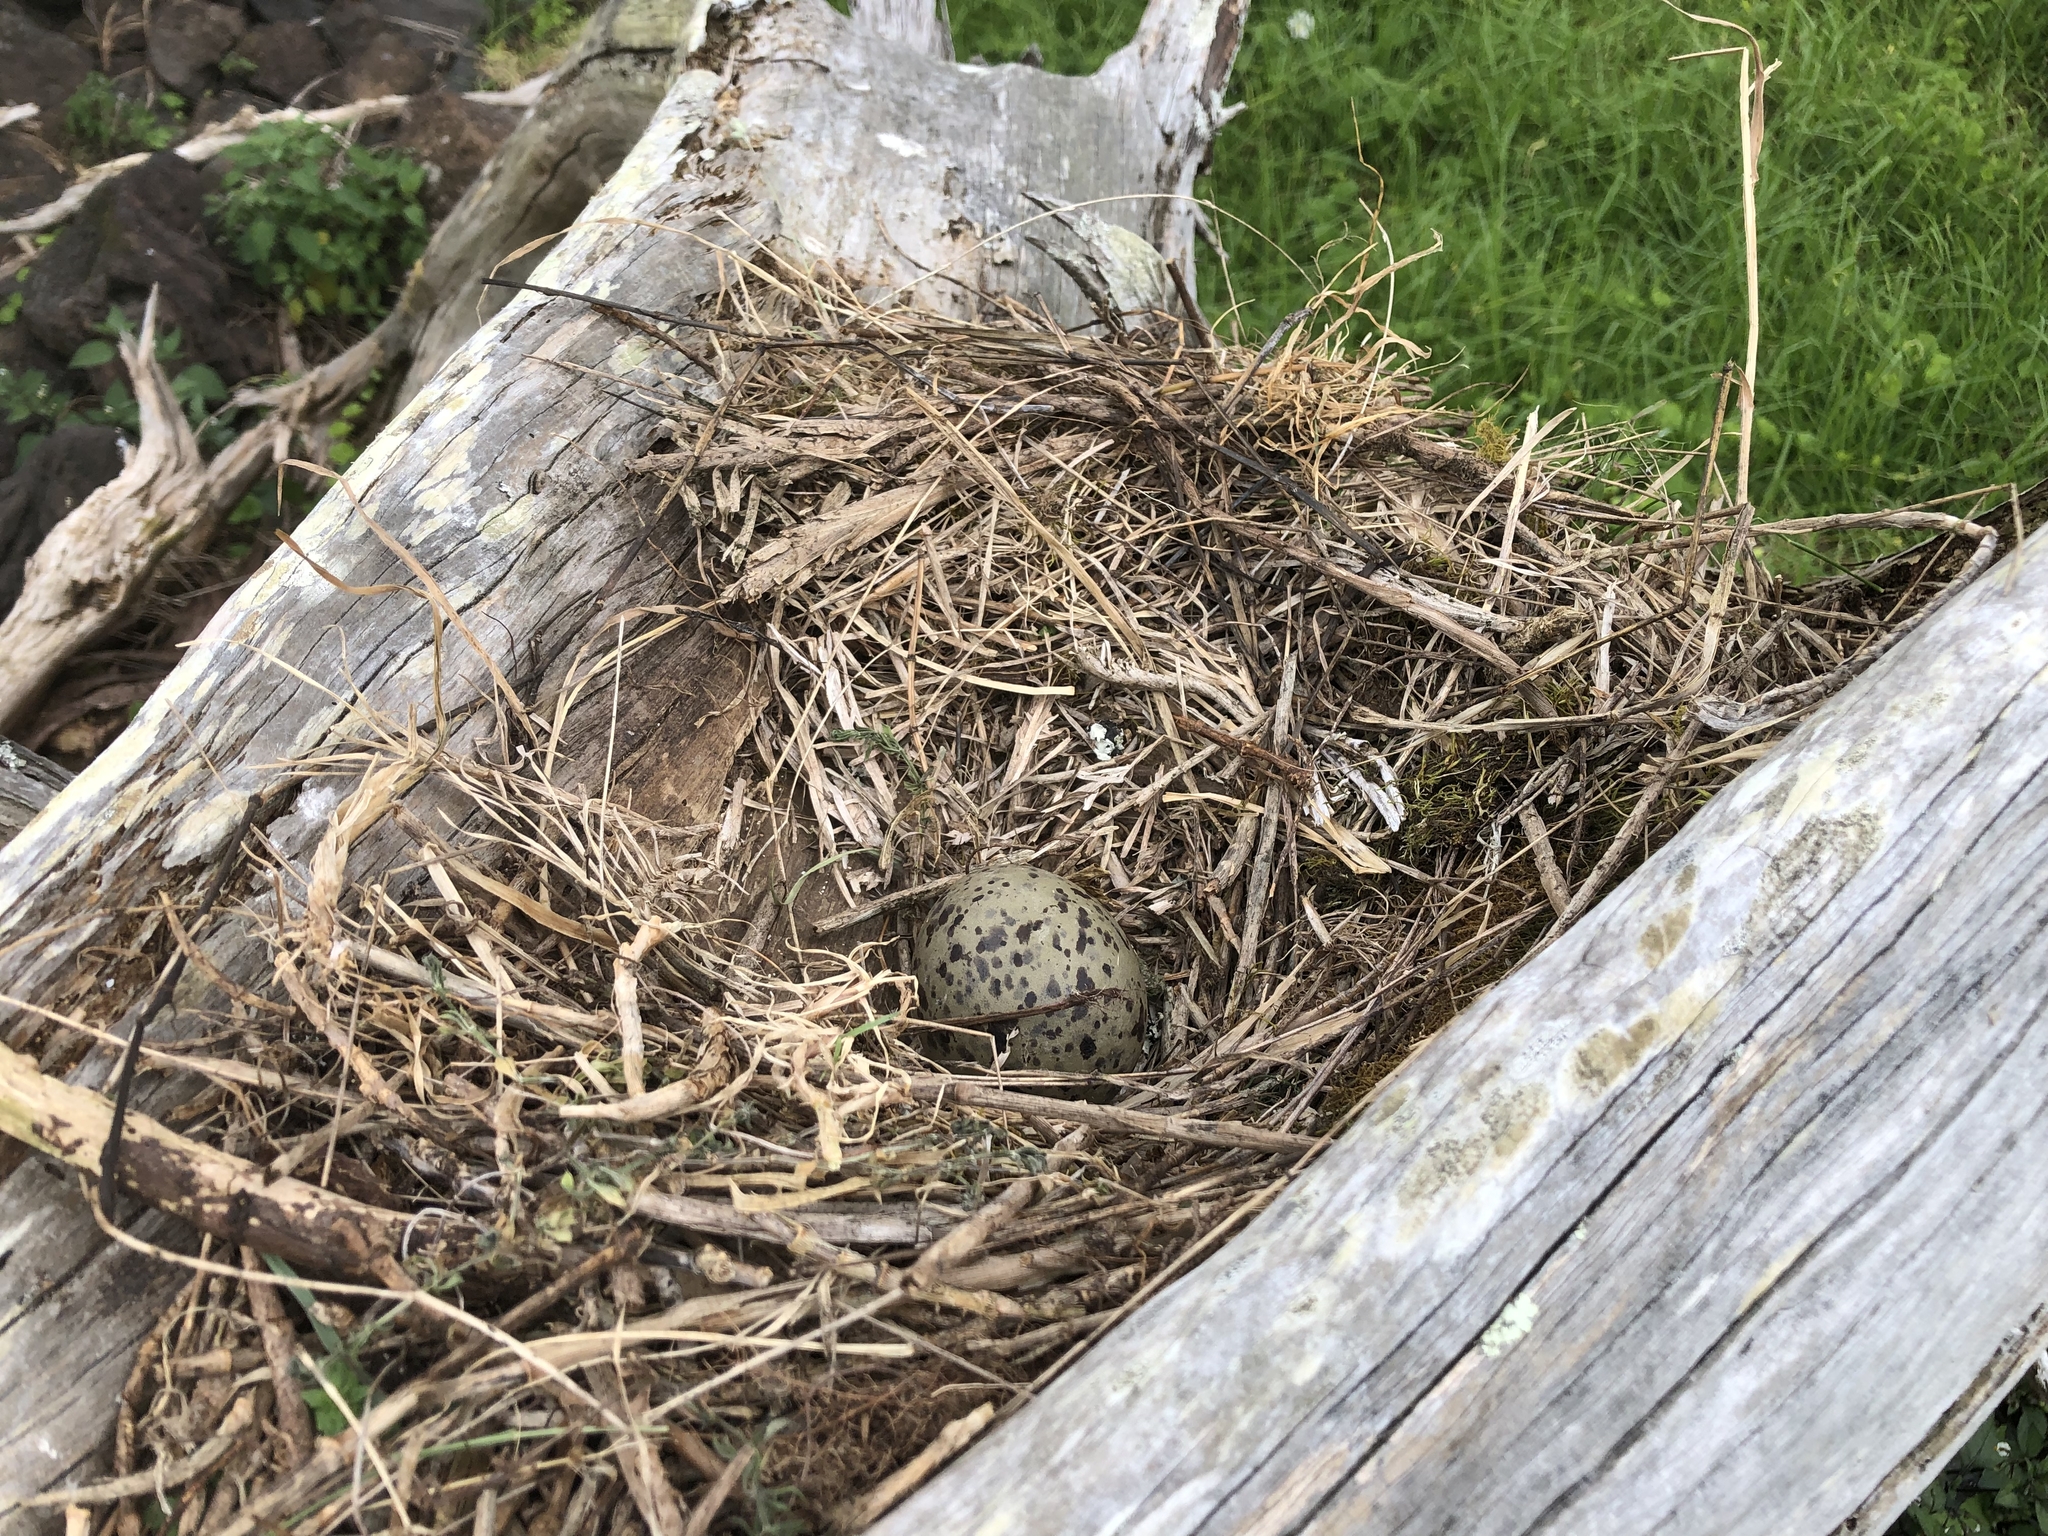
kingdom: Animalia
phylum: Chordata
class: Aves
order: Charadriiformes
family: Laridae
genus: Larus
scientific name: Larus dominicanus
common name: Kelp gull
